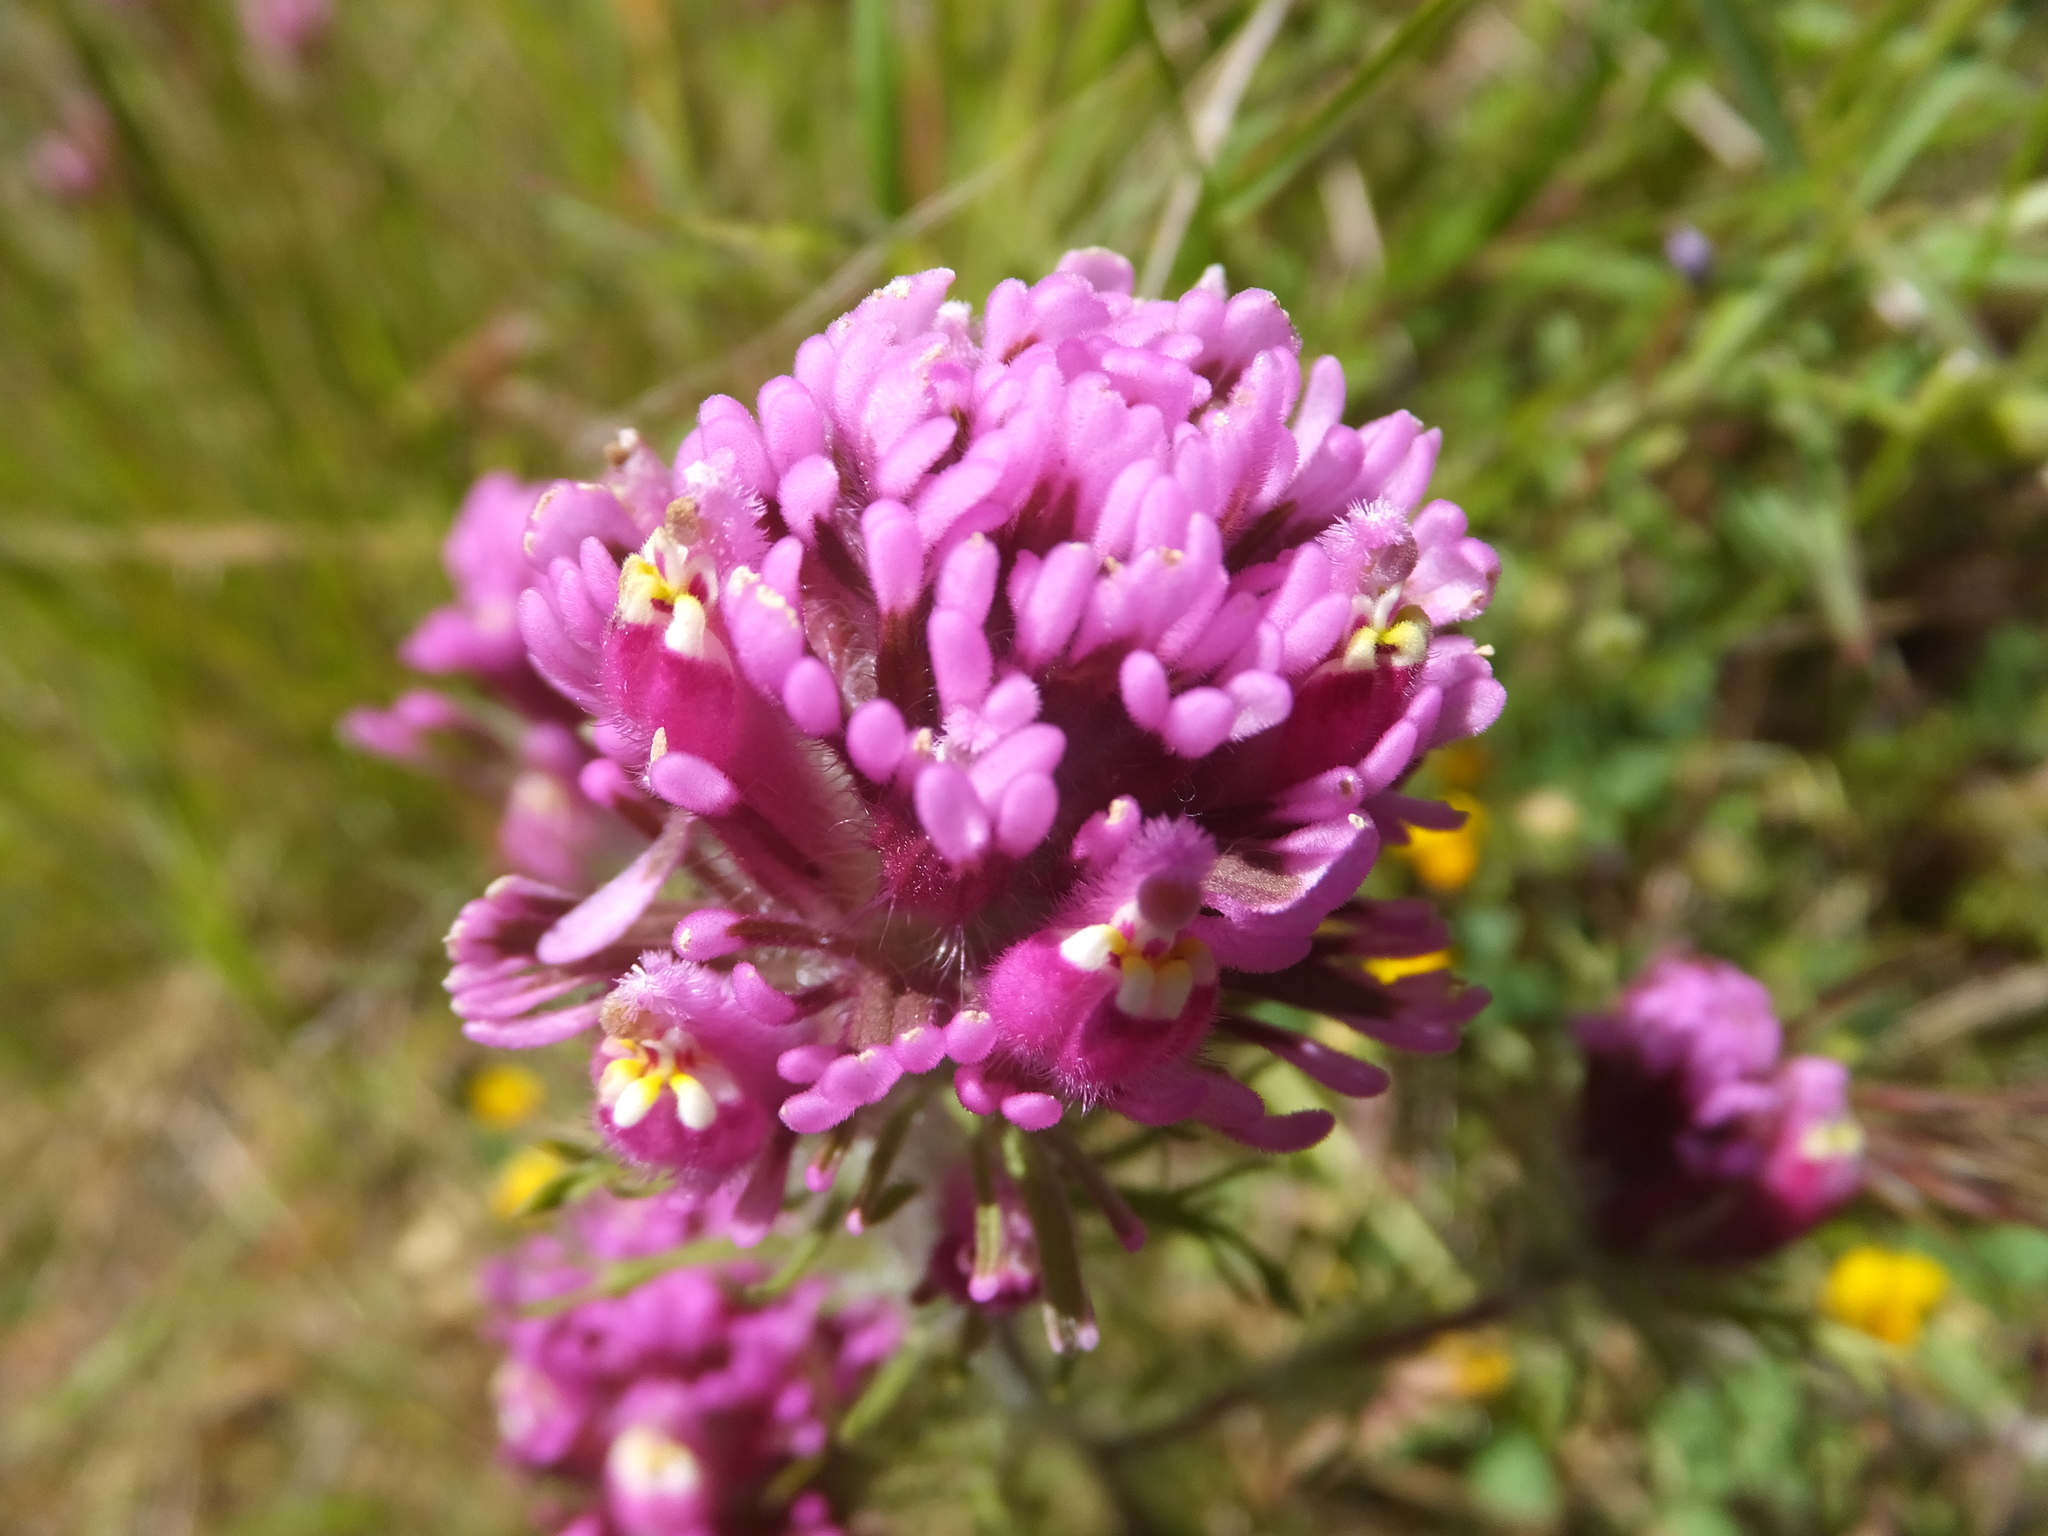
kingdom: Plantae
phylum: Tracheophyta
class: Magnoliopsida
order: Lamiales
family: Orobanchaceae
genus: Castilleja
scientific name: Castilleja exserta
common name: Purple owl-clover
